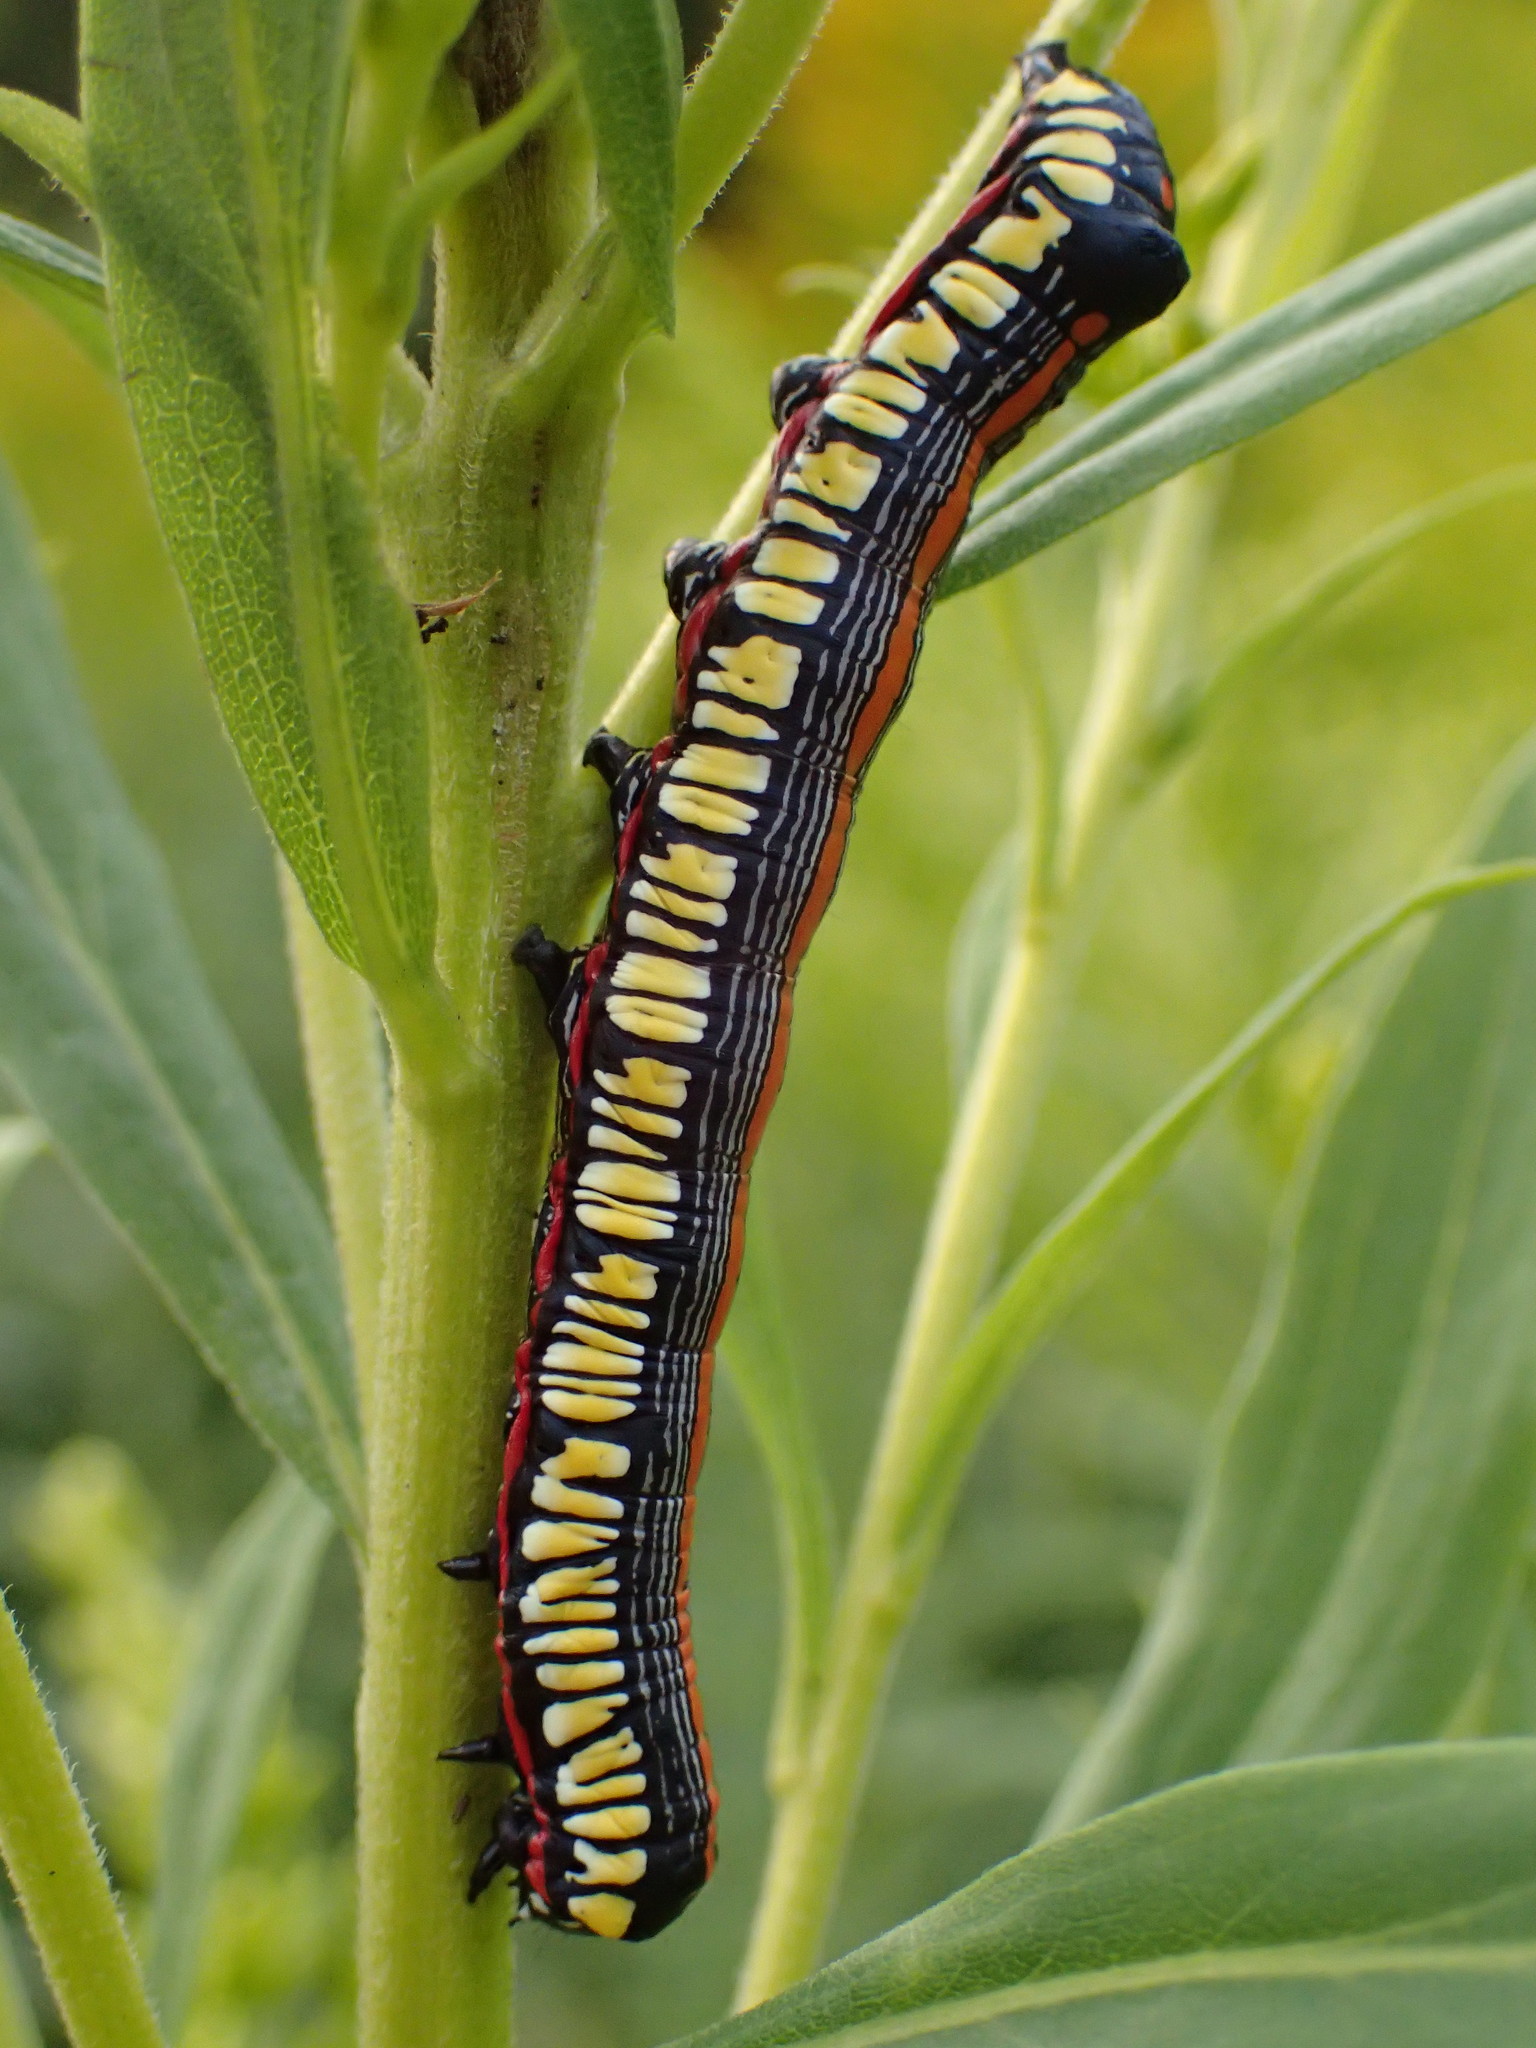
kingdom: Animalia
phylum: Arthropoda
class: Insecta
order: Lepidoptera
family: Noctuidae
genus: Cucullia
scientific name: Cucullia convexipennis
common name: Brown-hooded owlet
